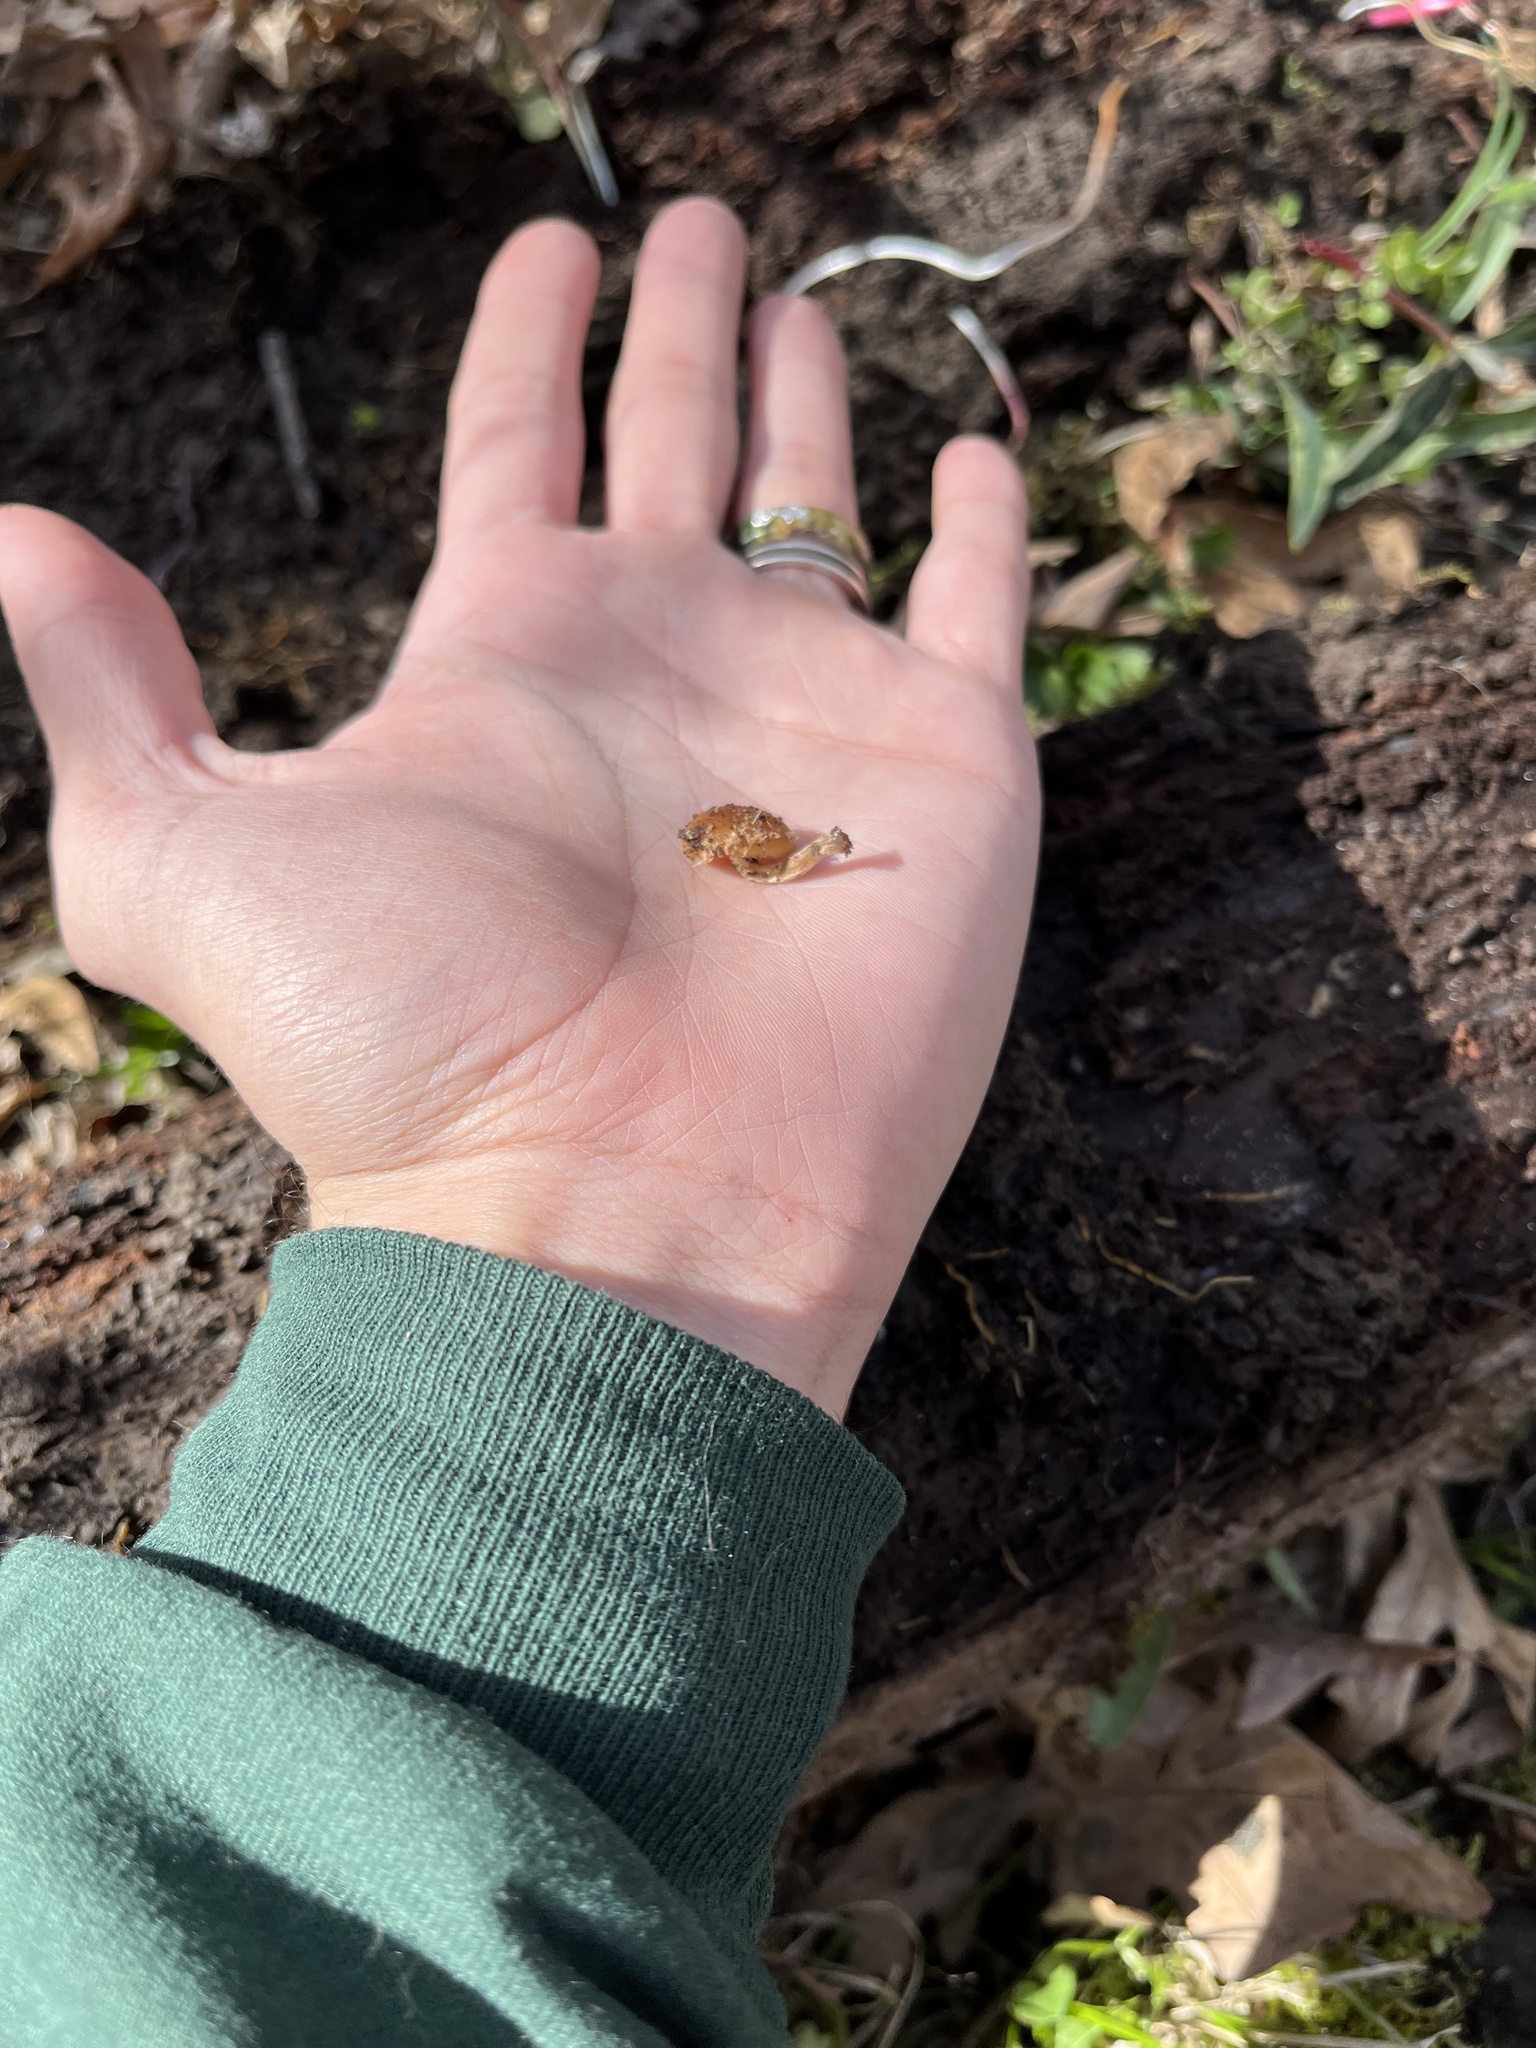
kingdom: Fungi
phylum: Basidiomycota
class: Agaricomycetes
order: Agaricales
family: Hymenogastraceae
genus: Galerina
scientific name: Galerina marginata
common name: Funeral bell
